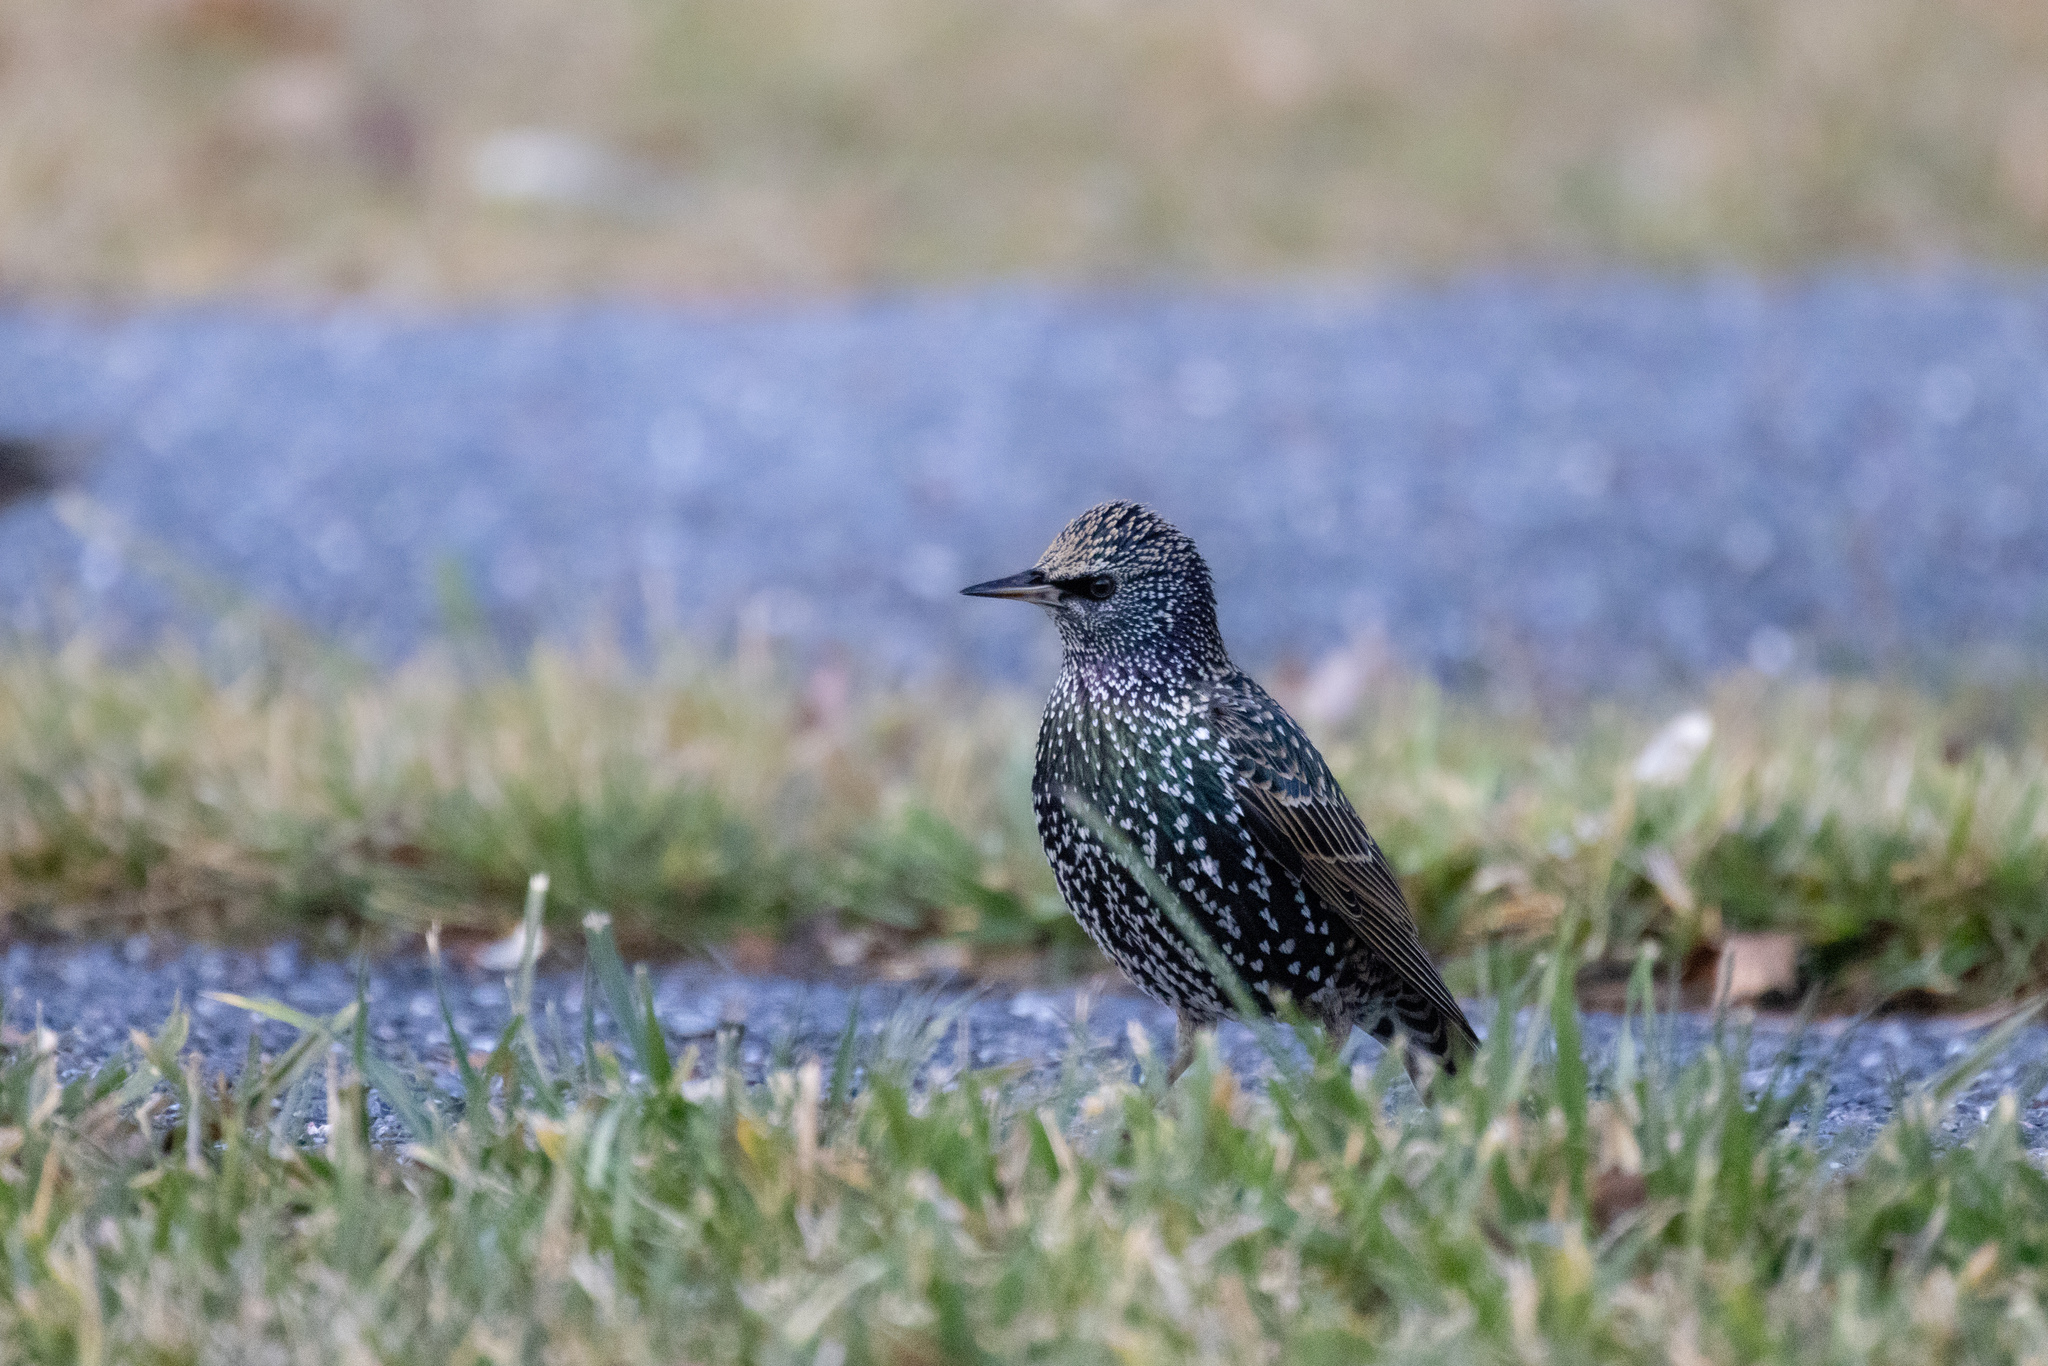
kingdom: Animalia
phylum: Chordata
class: Aves
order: Passeriformes
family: Sturnidae
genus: Sturnus
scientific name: Sturnus vulgaris
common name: Common starling
